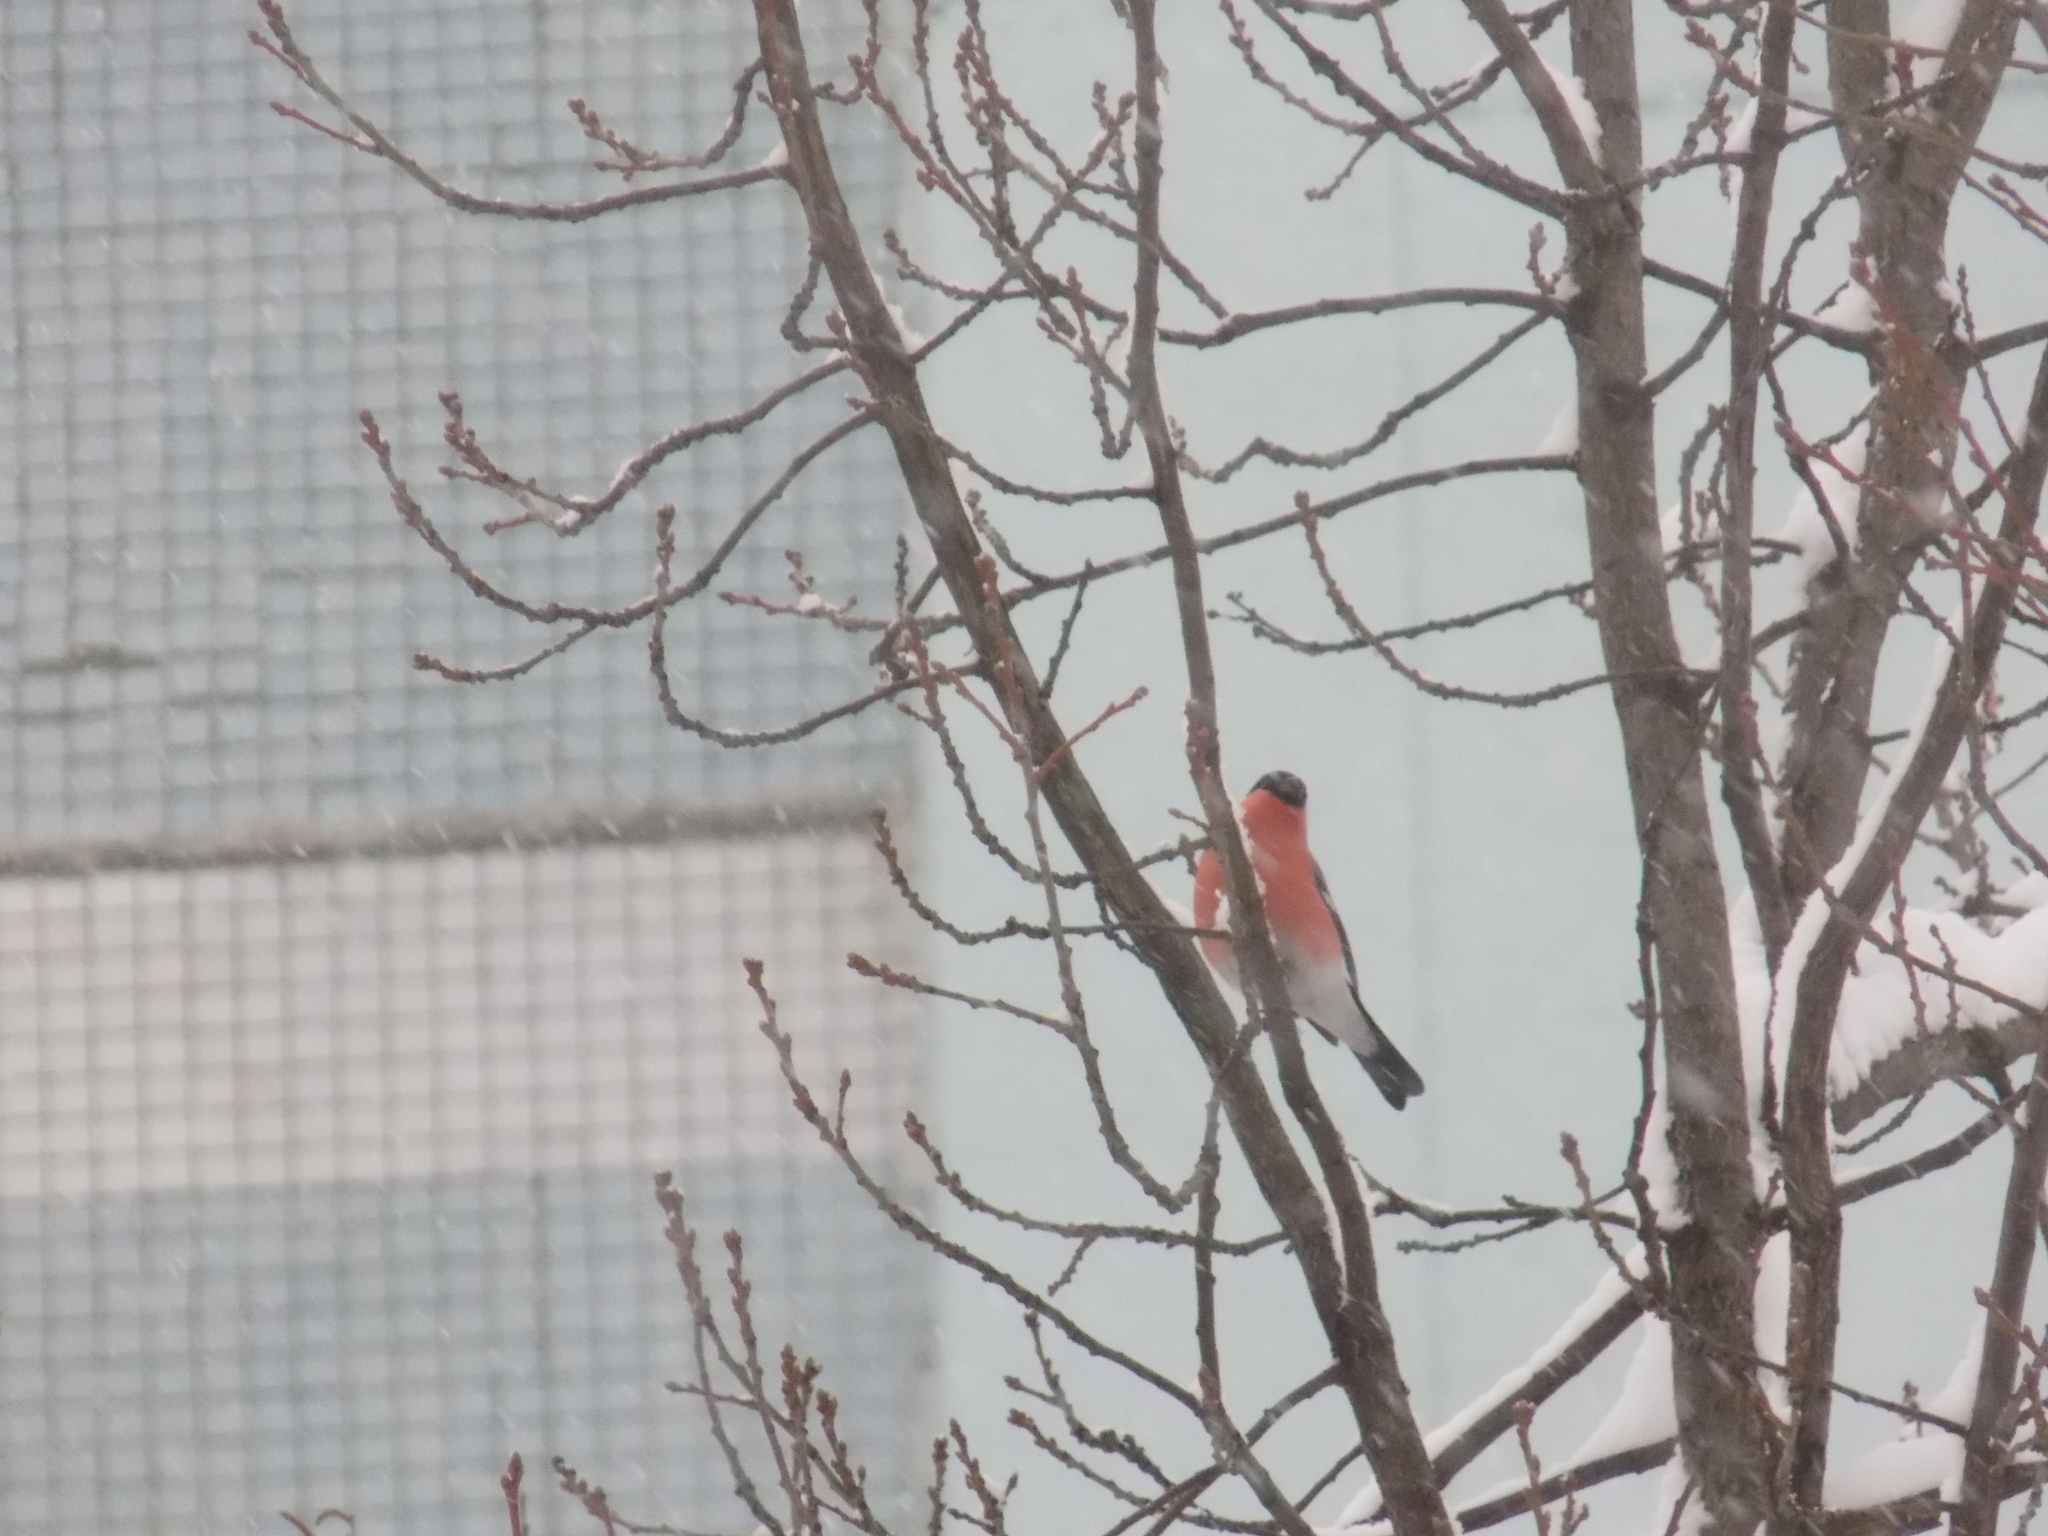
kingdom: Animalia
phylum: Chordata
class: Aves
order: Passeriformes
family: Fringillidae
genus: Pyrrhula
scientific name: Pyrrhula pyrrhula
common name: Eurasian bullfinch
